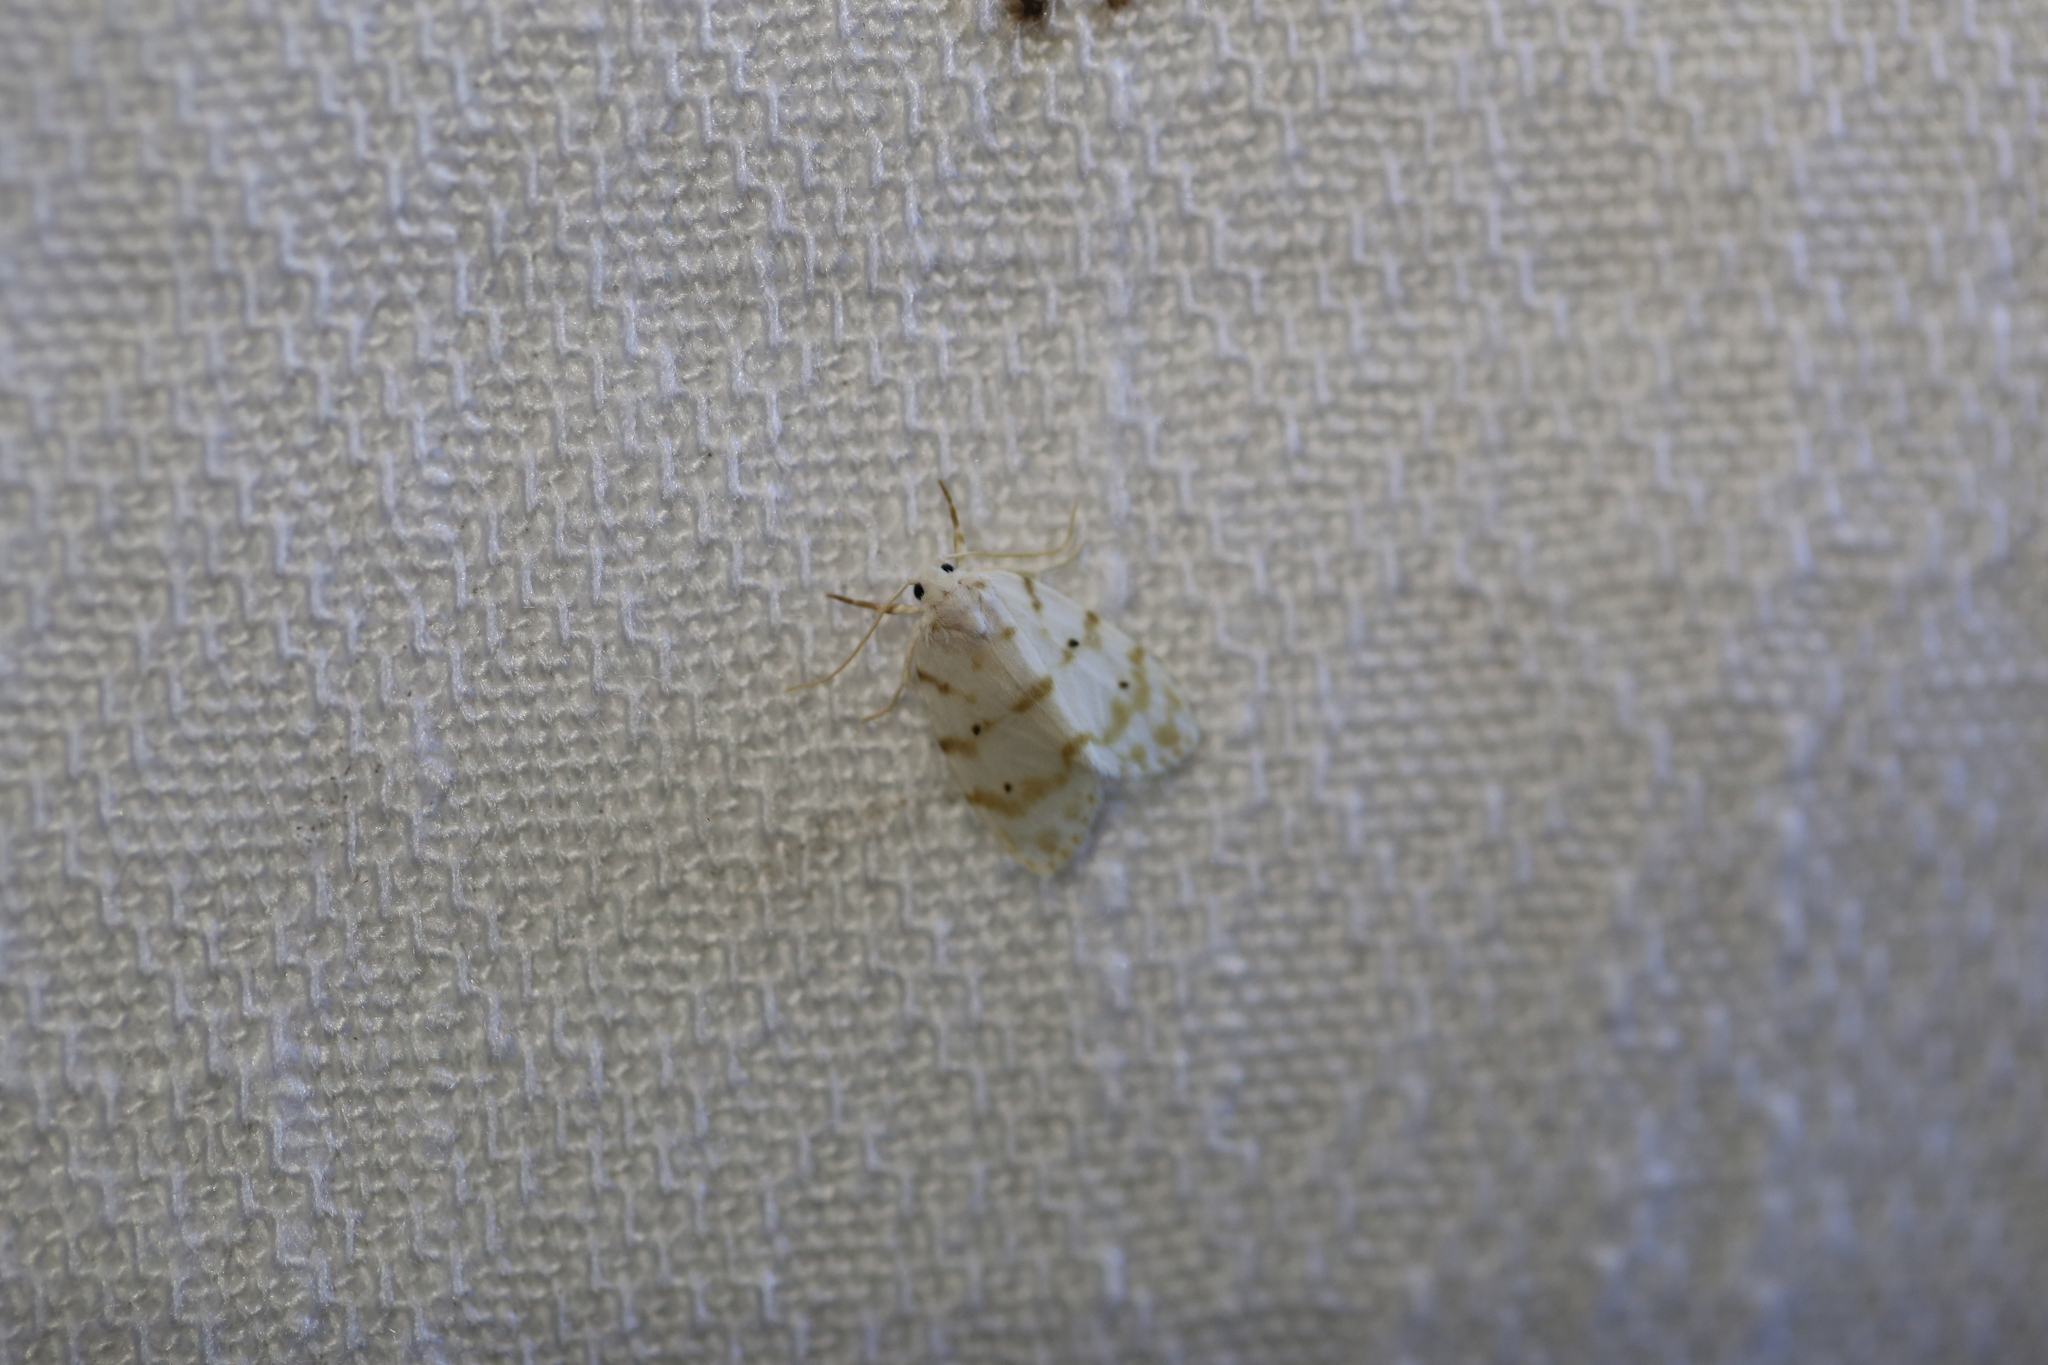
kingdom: Animalia
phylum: Arthropoda
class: Insecta
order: Lepidoptera
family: Erebidae
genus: Schistophleps
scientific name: Schistophleps albida
